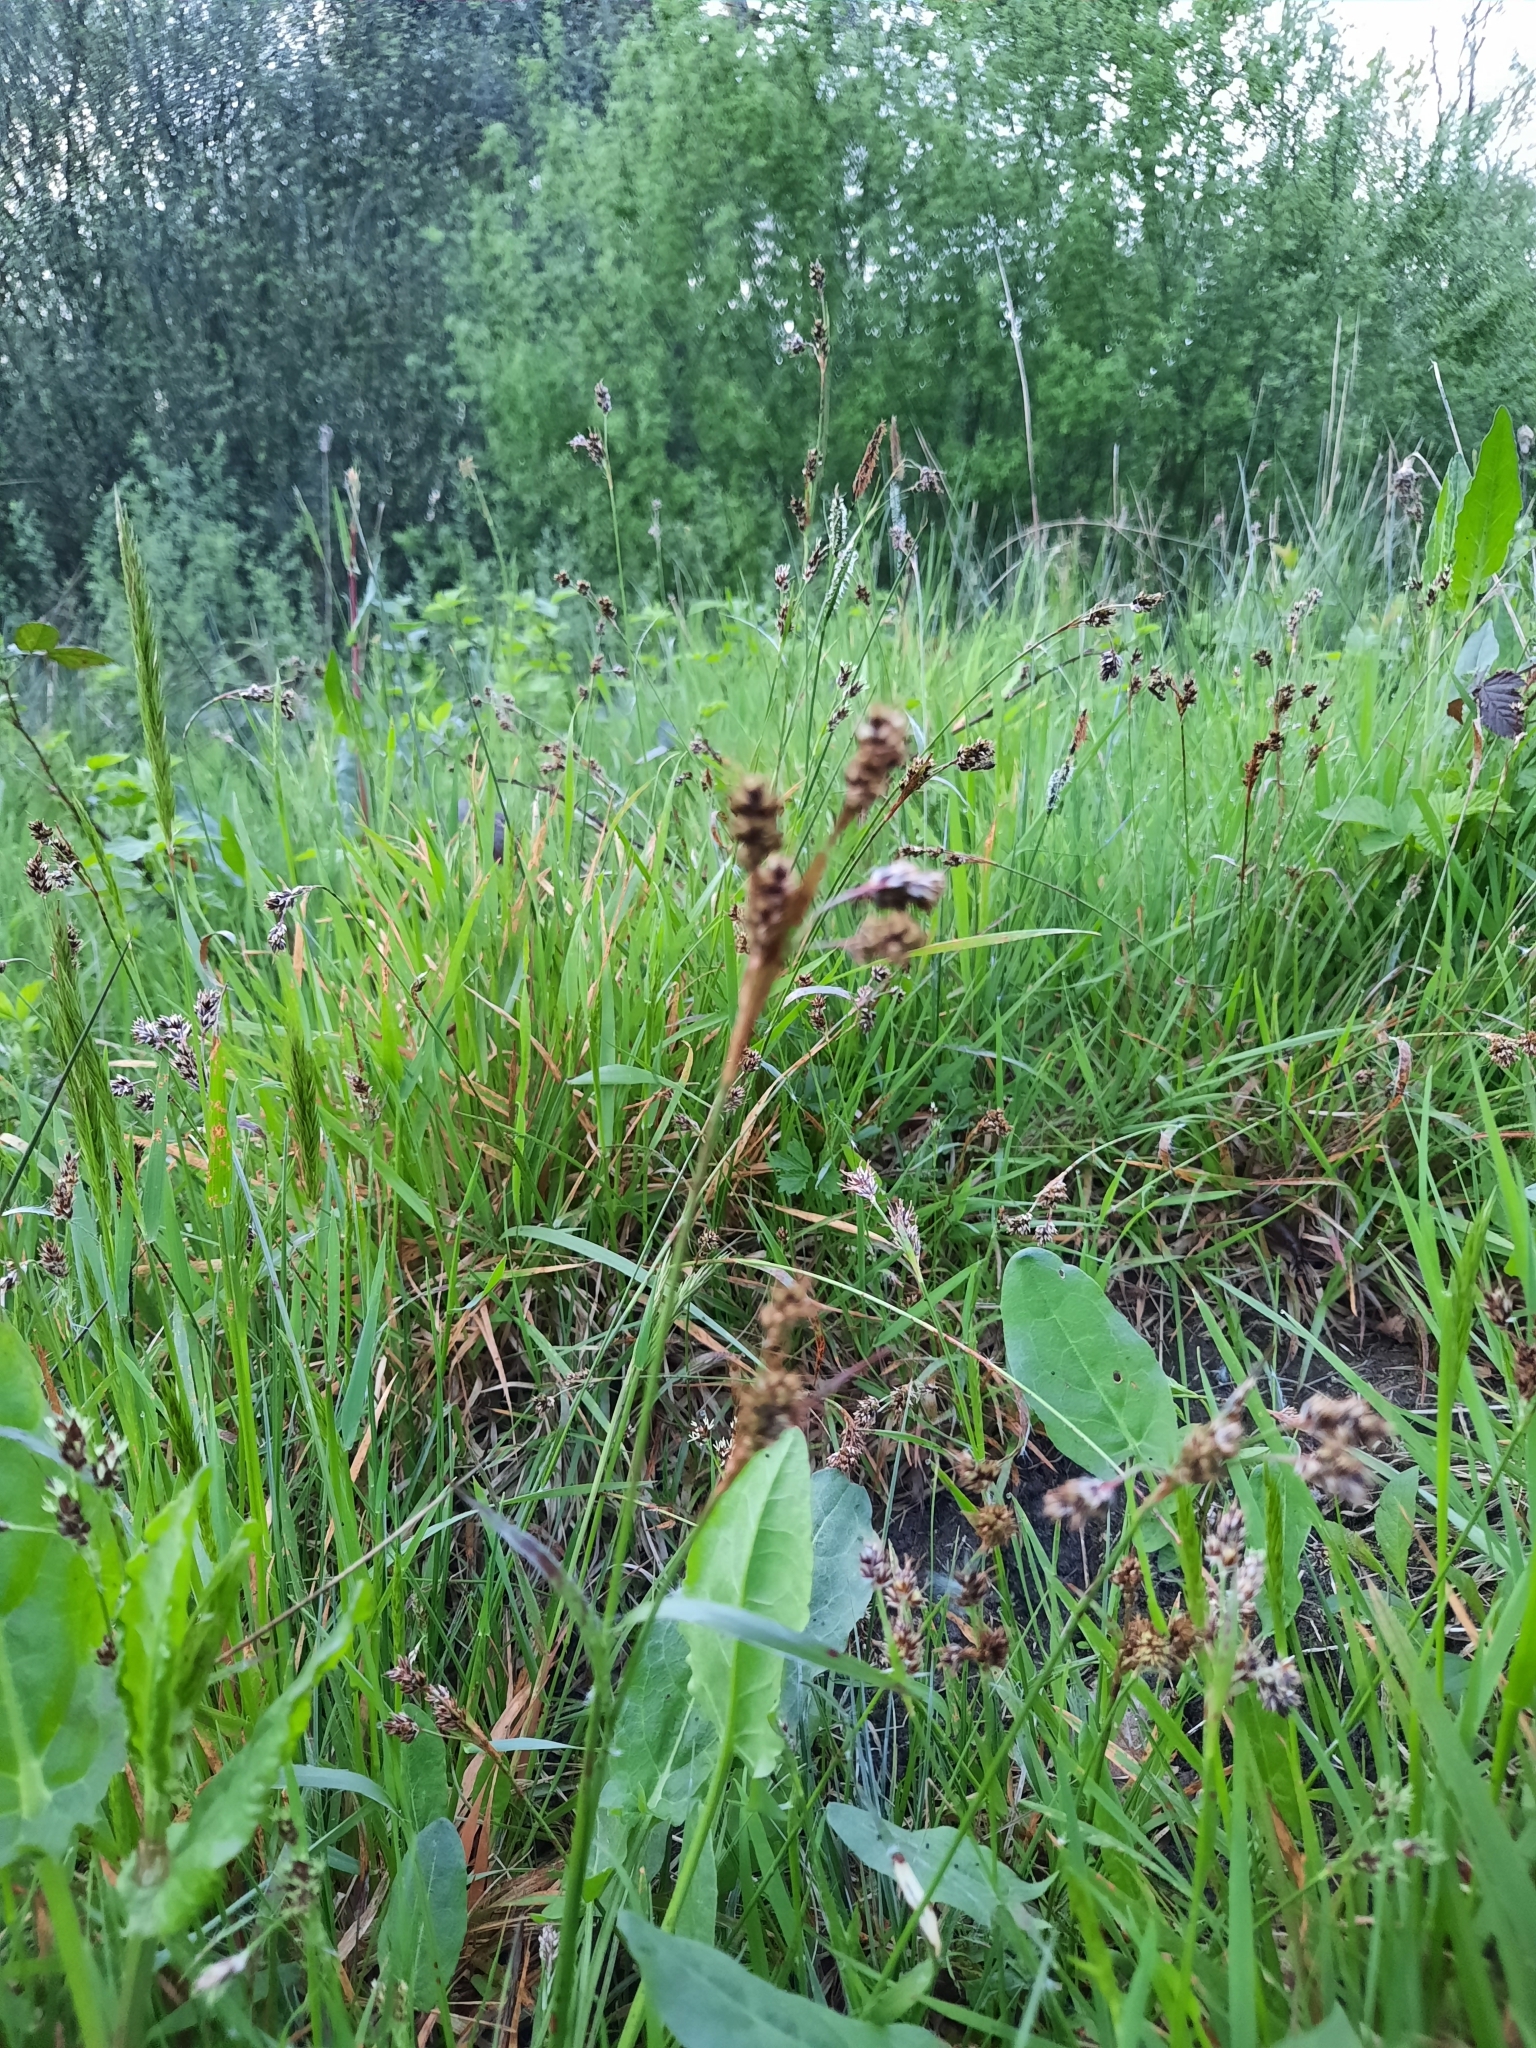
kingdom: Plantae
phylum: Tracheophyta
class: Liliopsida
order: Poales
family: Juncaceae
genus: Luzula
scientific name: Luzula campestris
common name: Field wood-rush
